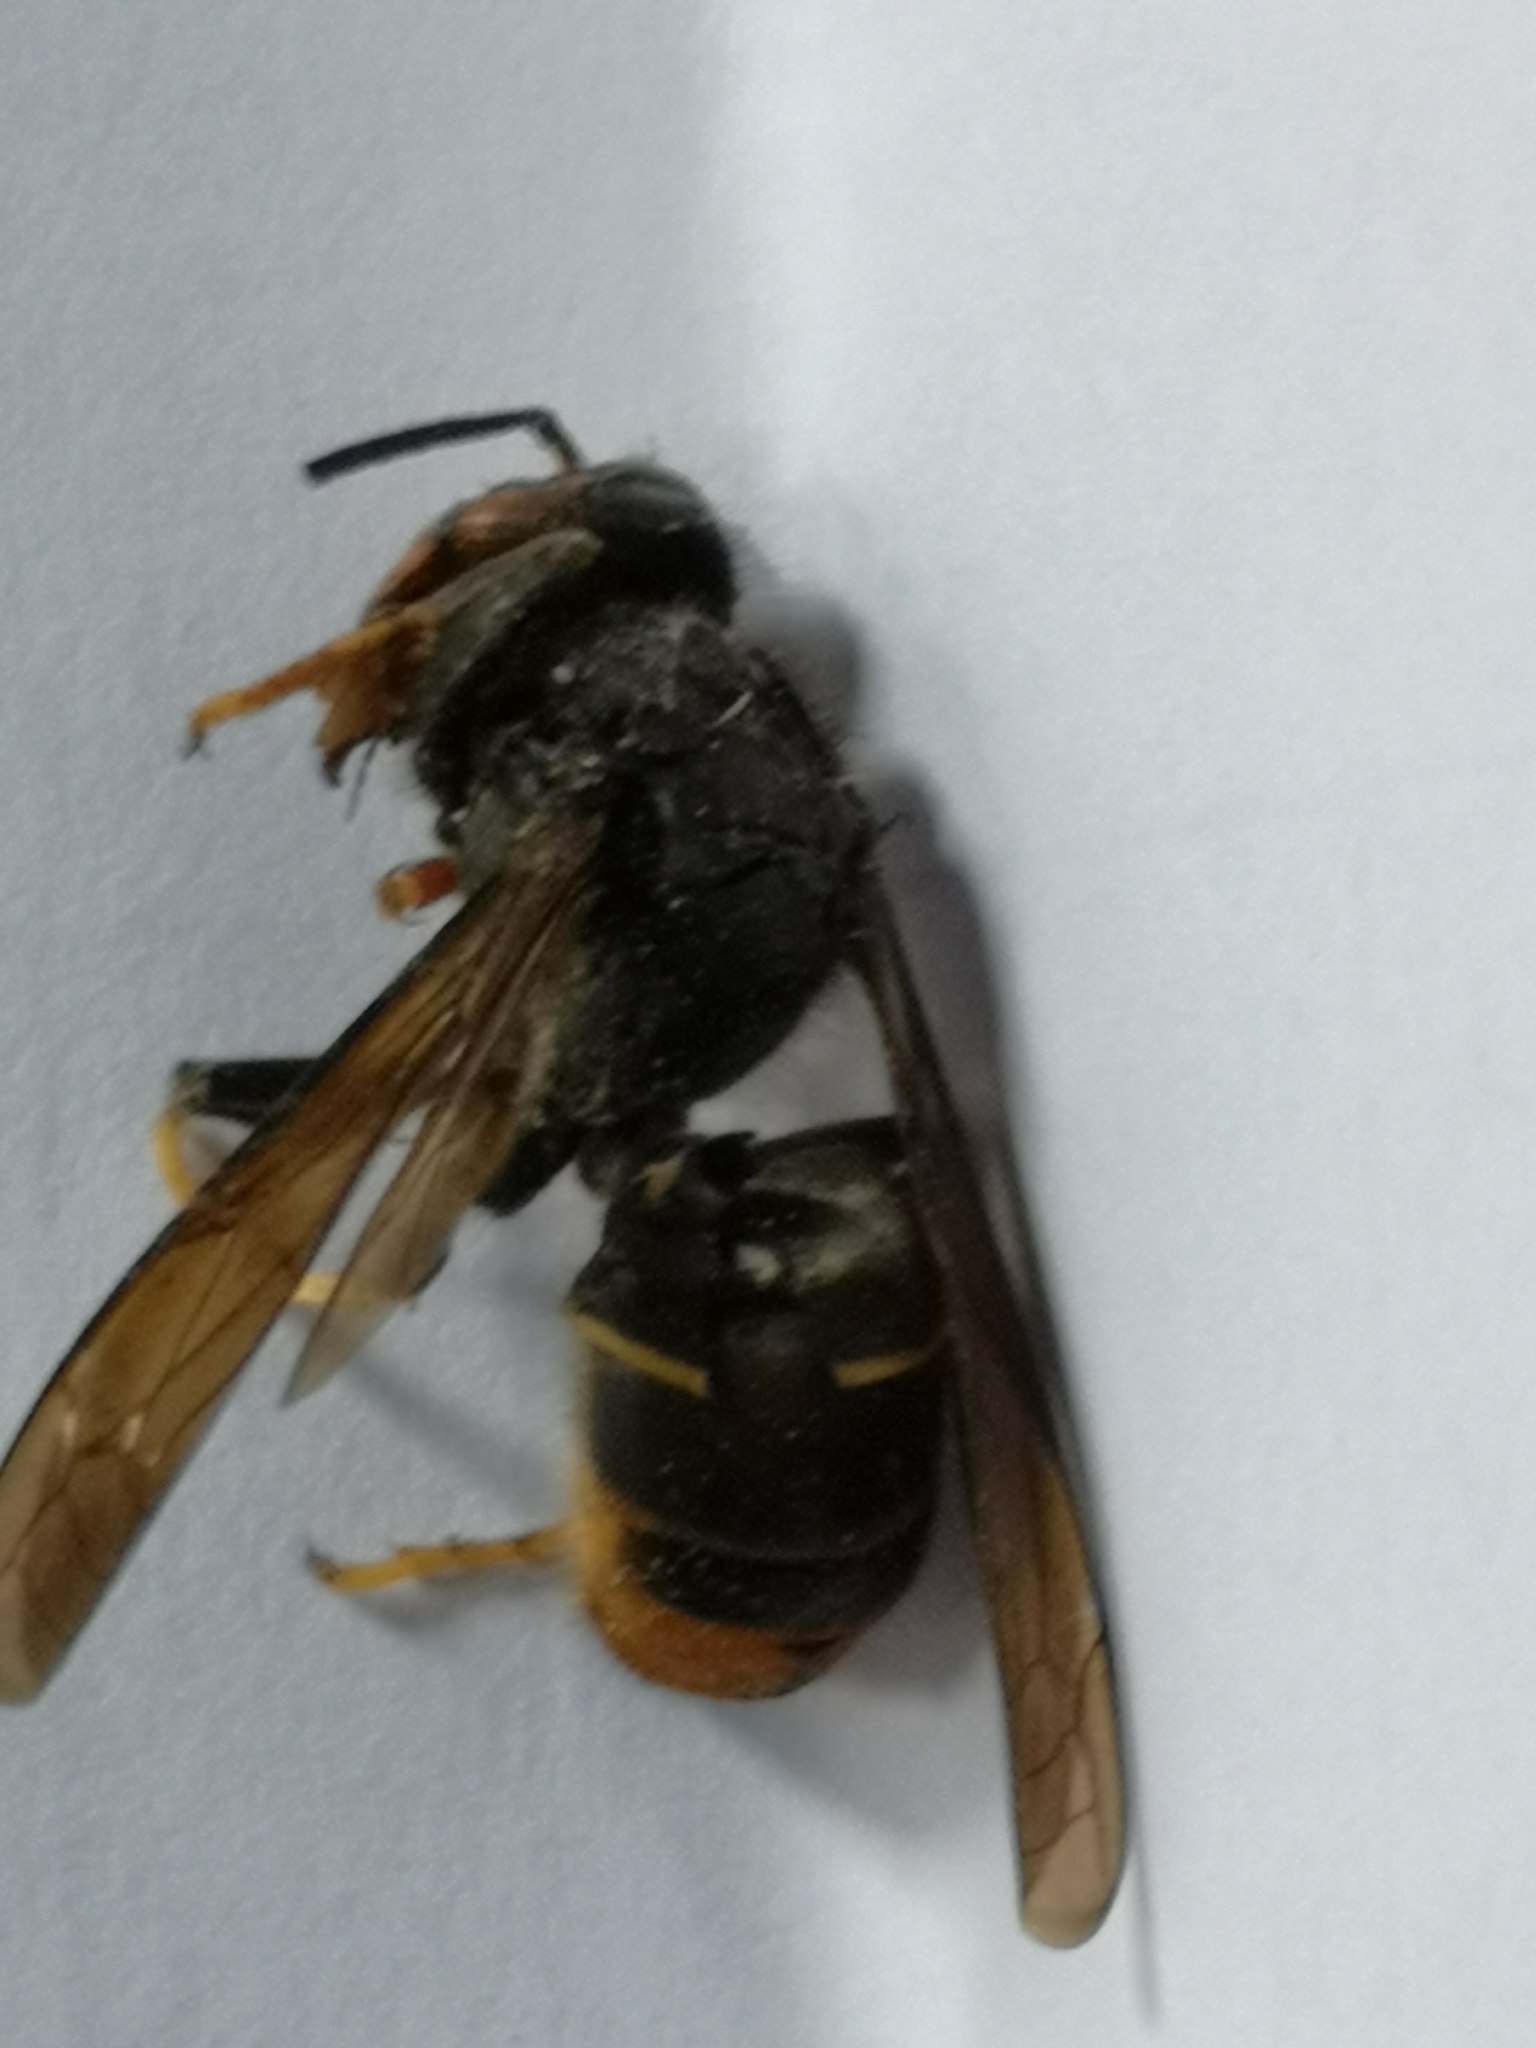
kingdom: Animalia
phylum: Arthropoda
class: Insecta
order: Hymenoptera
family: Vespidae
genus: Vespa
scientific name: Vespa velutina
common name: Asian hornet
